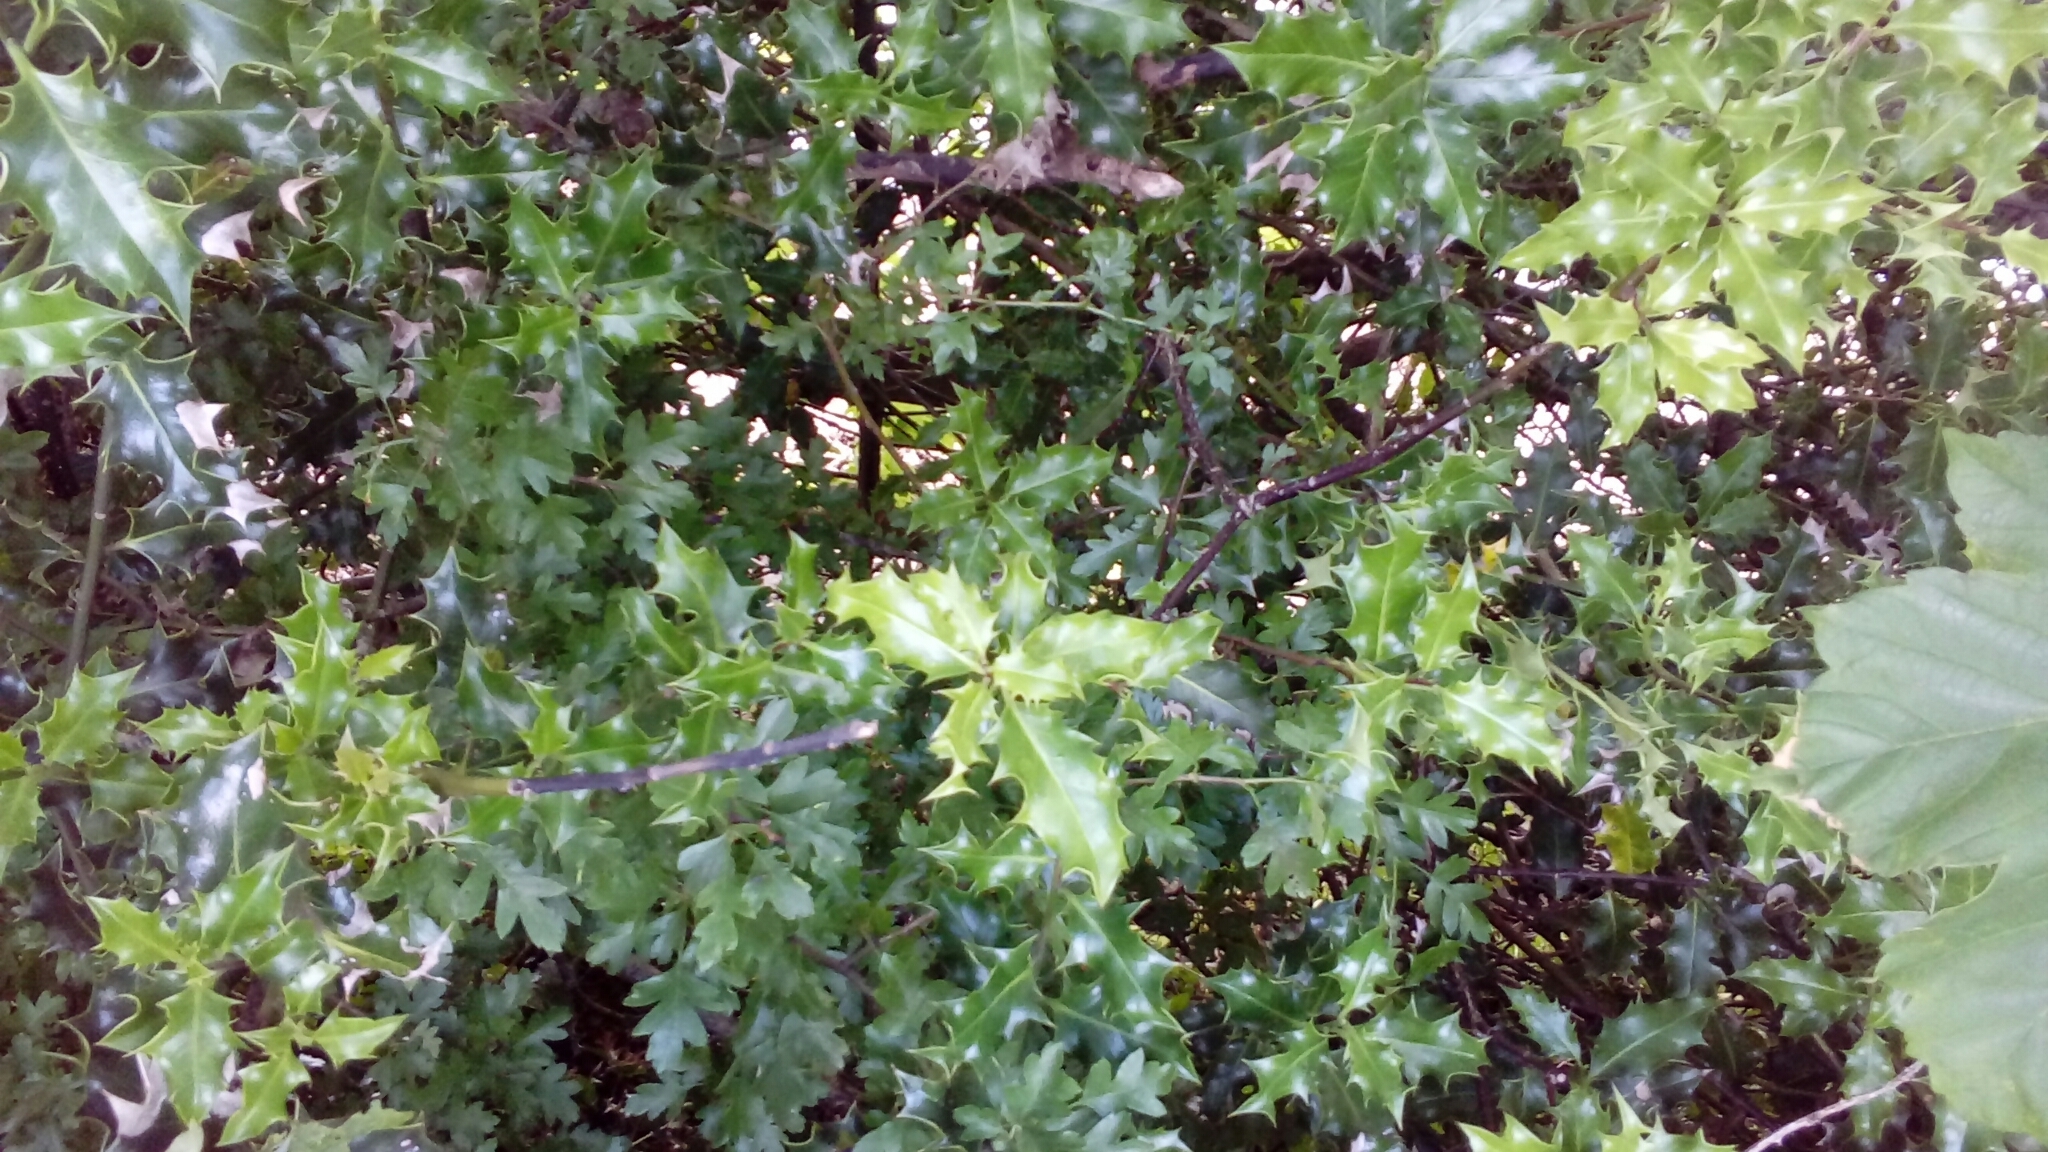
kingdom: Plantae
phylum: Tracheophyta
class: Magnoliopsida
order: Aquifoliales
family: Aquifoliaceae
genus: Ilex
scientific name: Ilex aquifolium
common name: English holly
